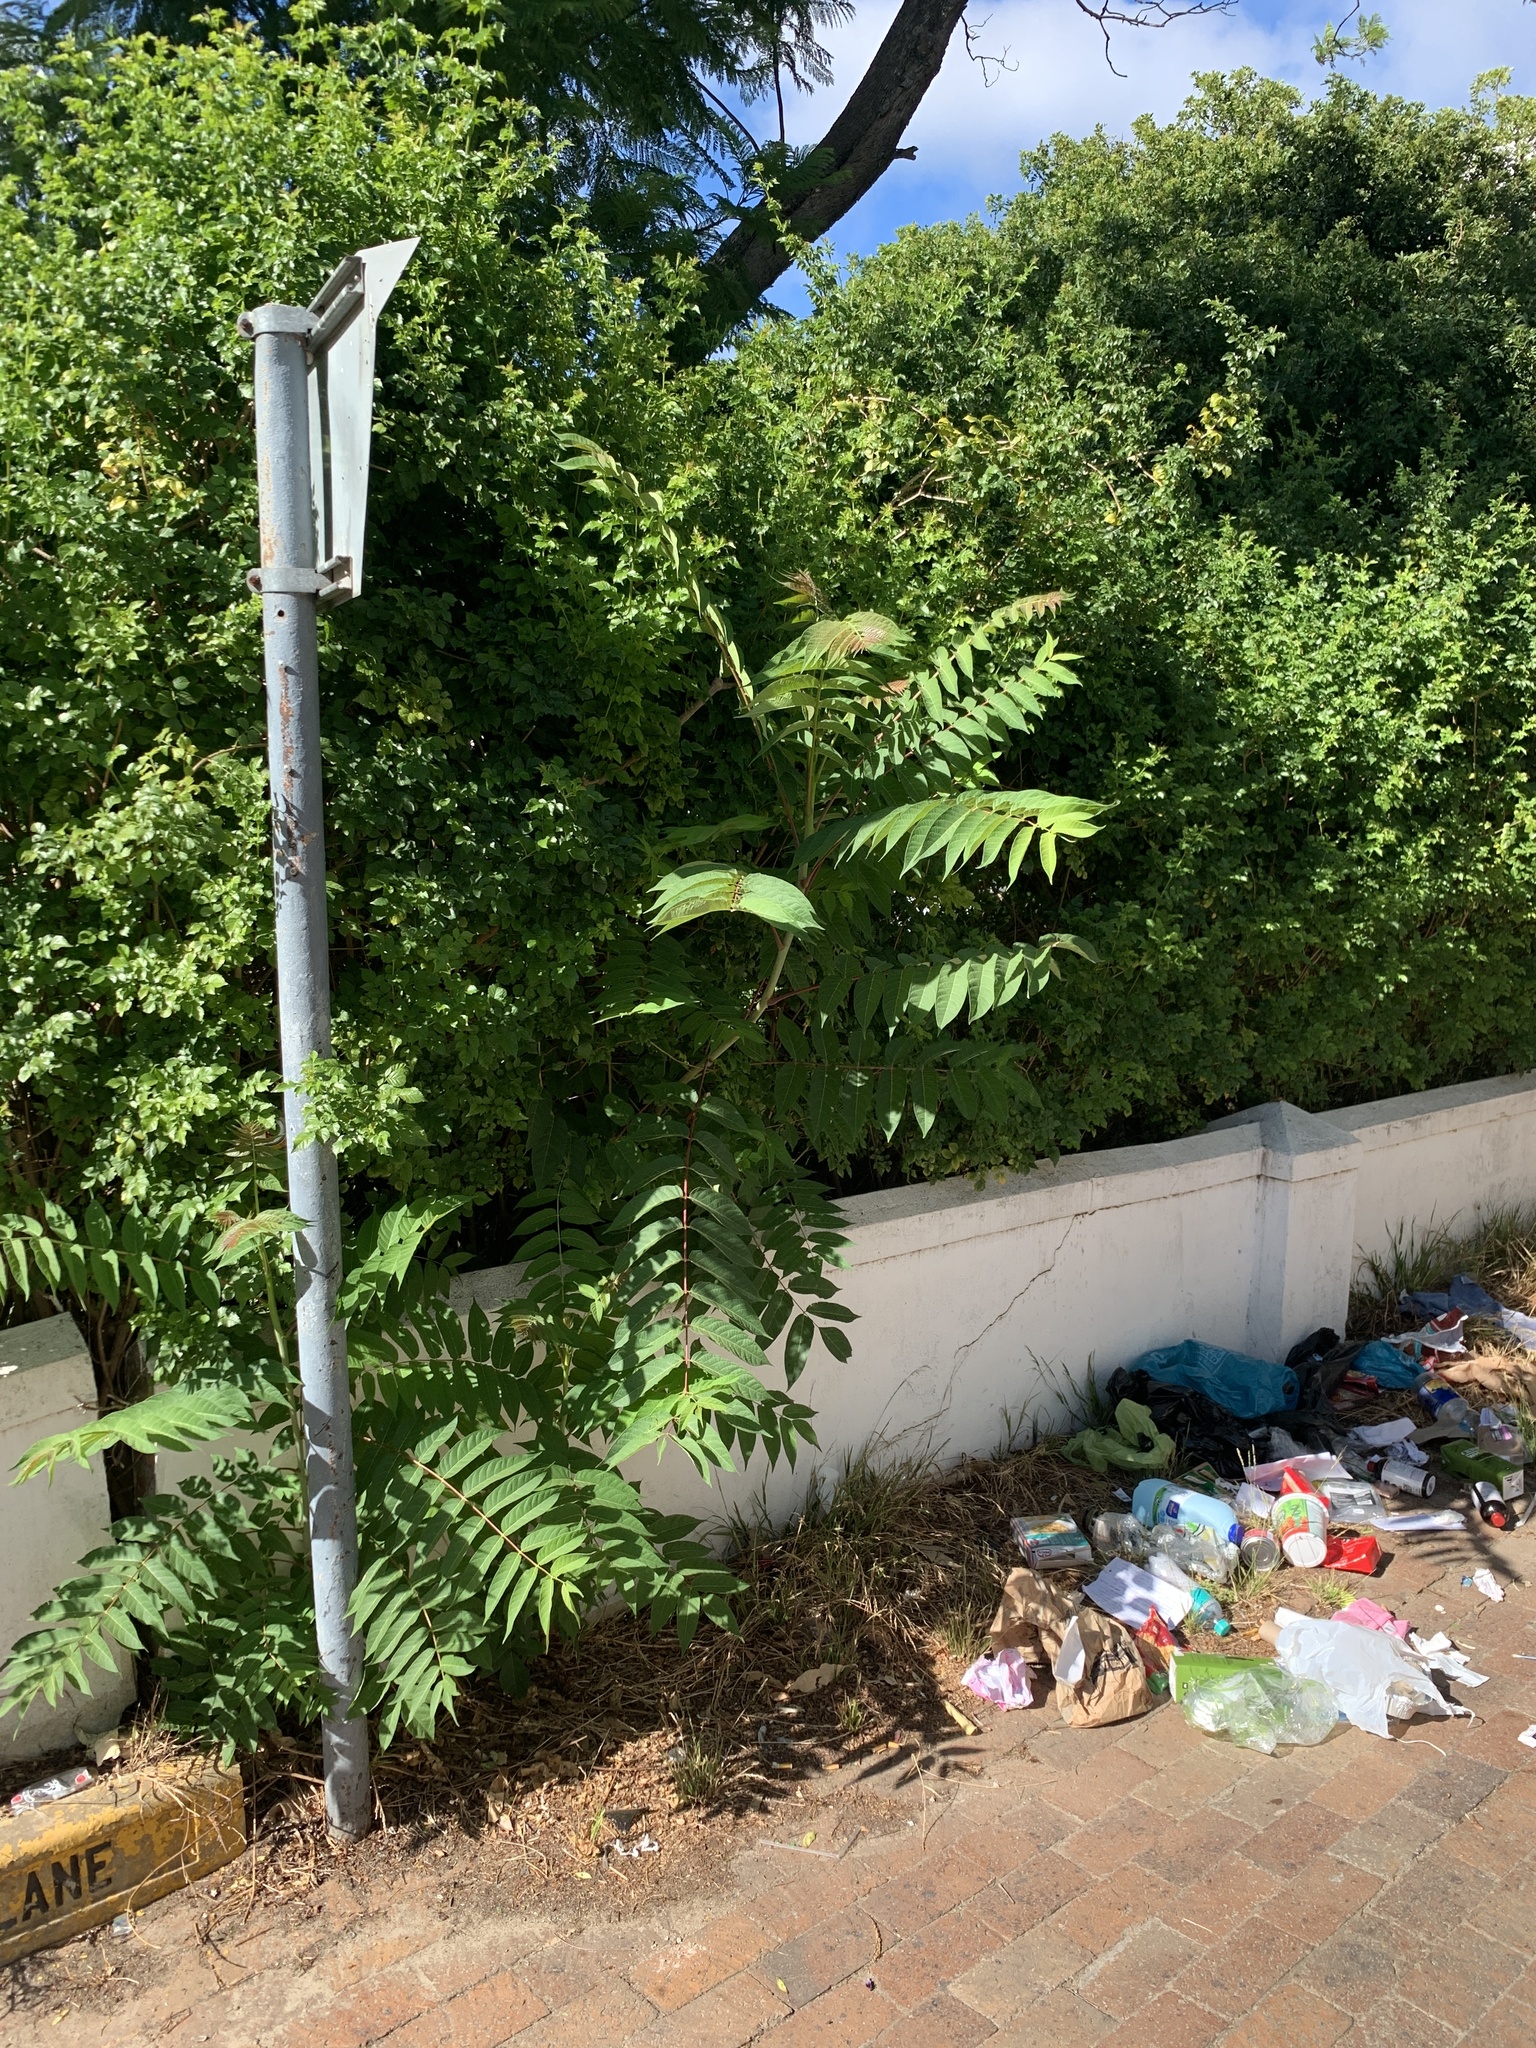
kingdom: Plantae
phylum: Tracheophyta
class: Magnoliopsida
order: Sapindales
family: Simaroubaceae
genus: Ailanthus
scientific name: Ailanthus altissima
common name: Tree-of-heaven
